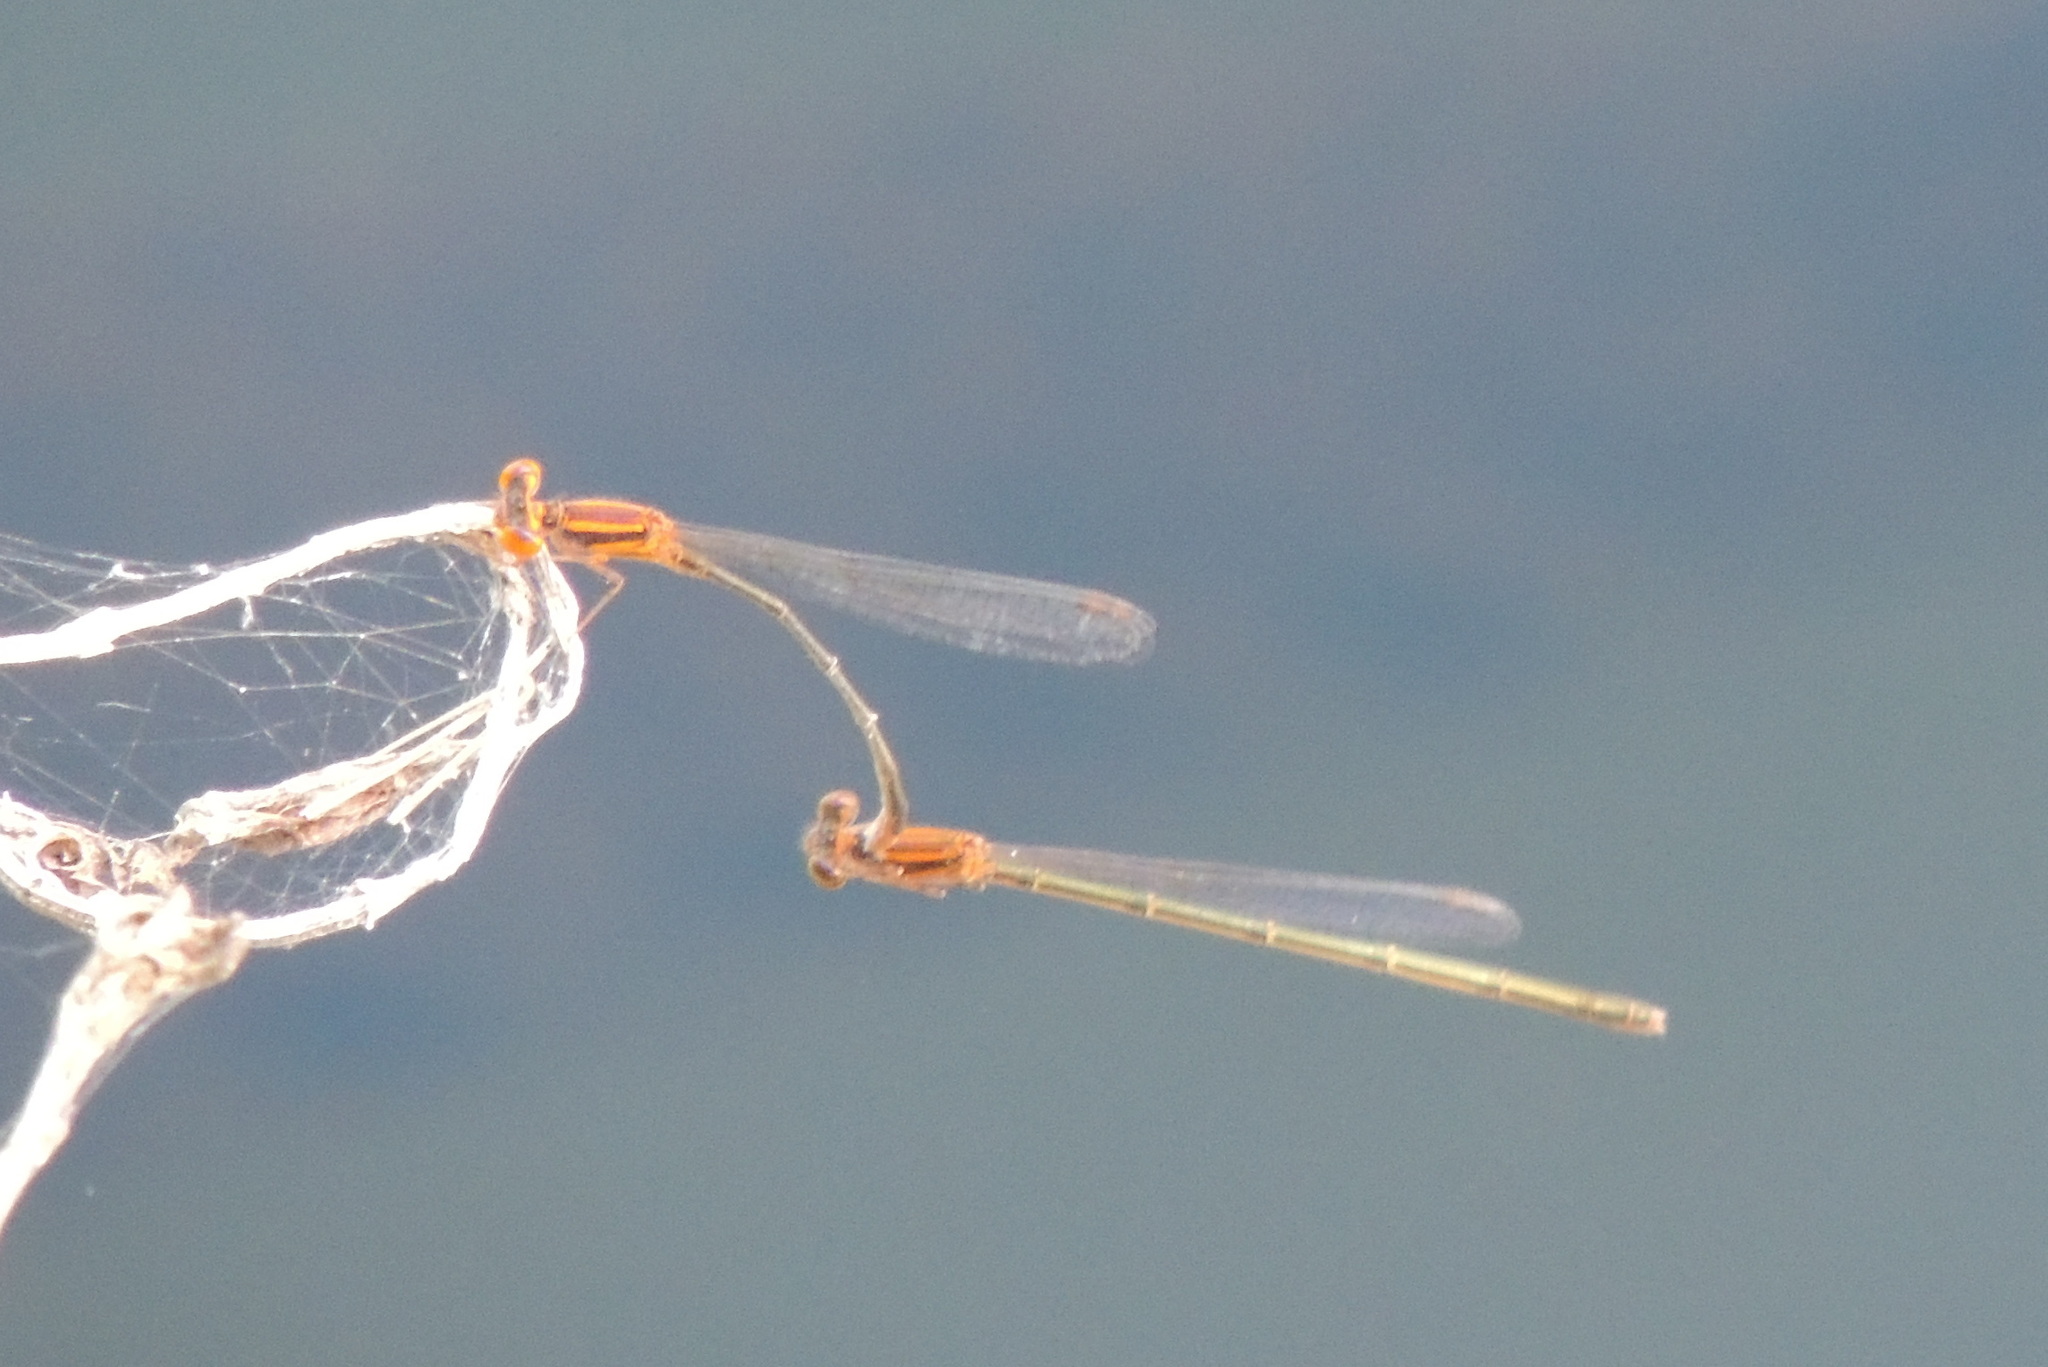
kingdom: Animalia
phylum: Arthropoda
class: Insecta
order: Odonata
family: Coenagrionidae
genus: Enallagma
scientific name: Enallagma pollutum
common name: Florida bluet
